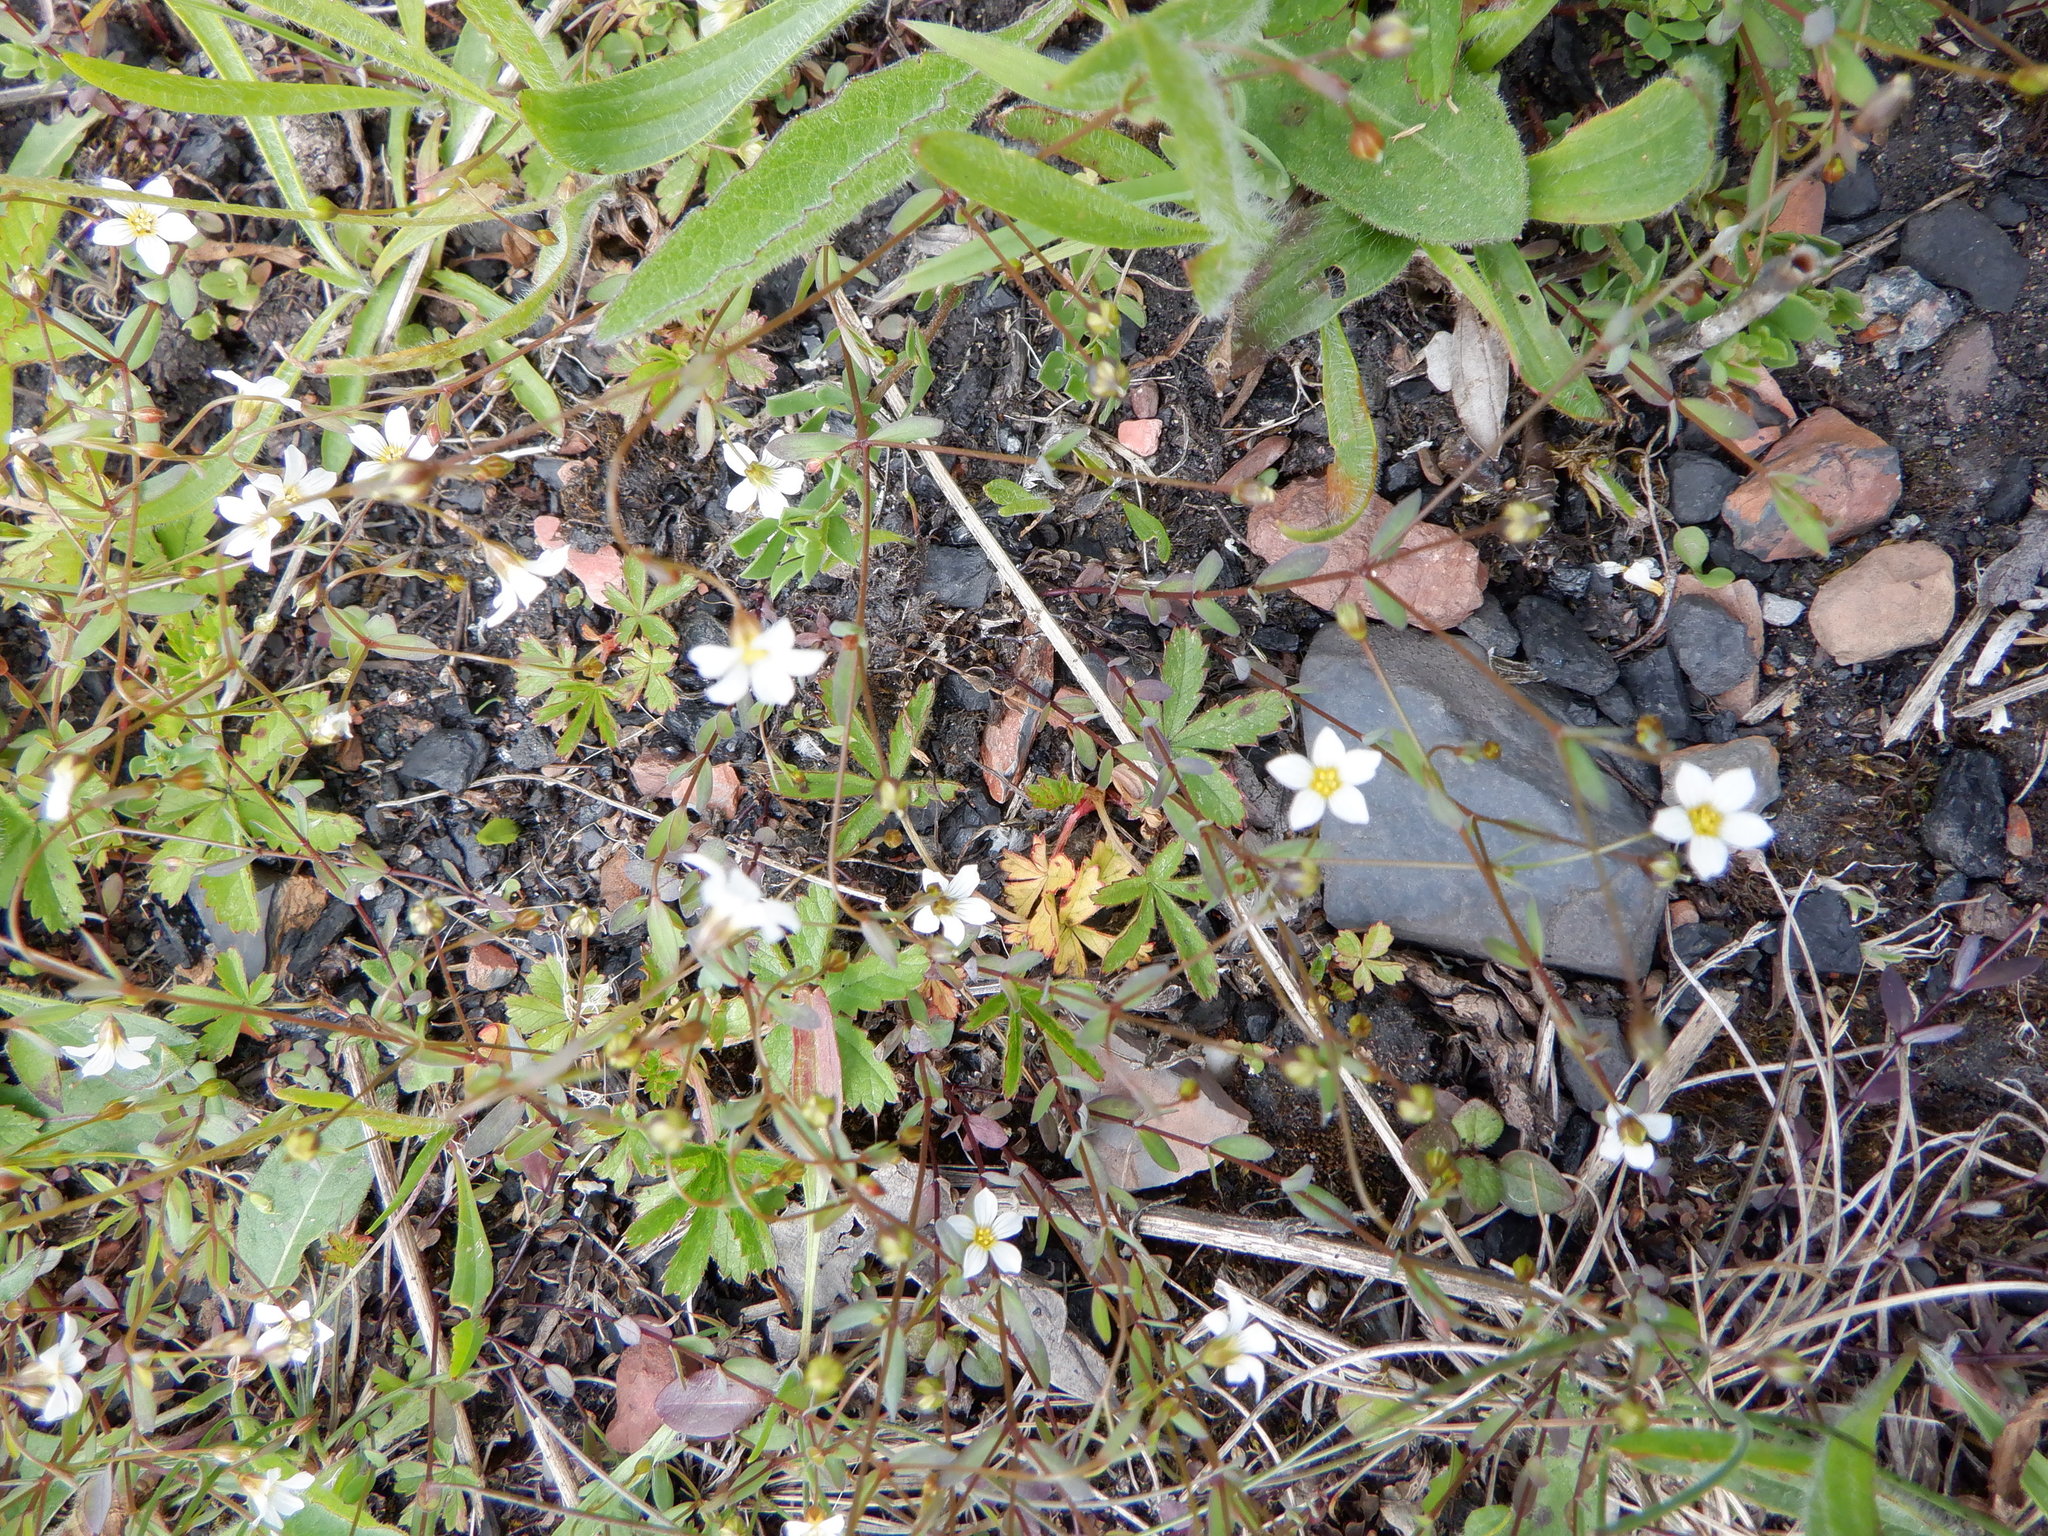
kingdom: Plantae
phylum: Tracheophyta
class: Magnoliopsida
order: Malpighiales
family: Linaceae
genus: Linum
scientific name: Linum catharticum
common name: Fairy flax
